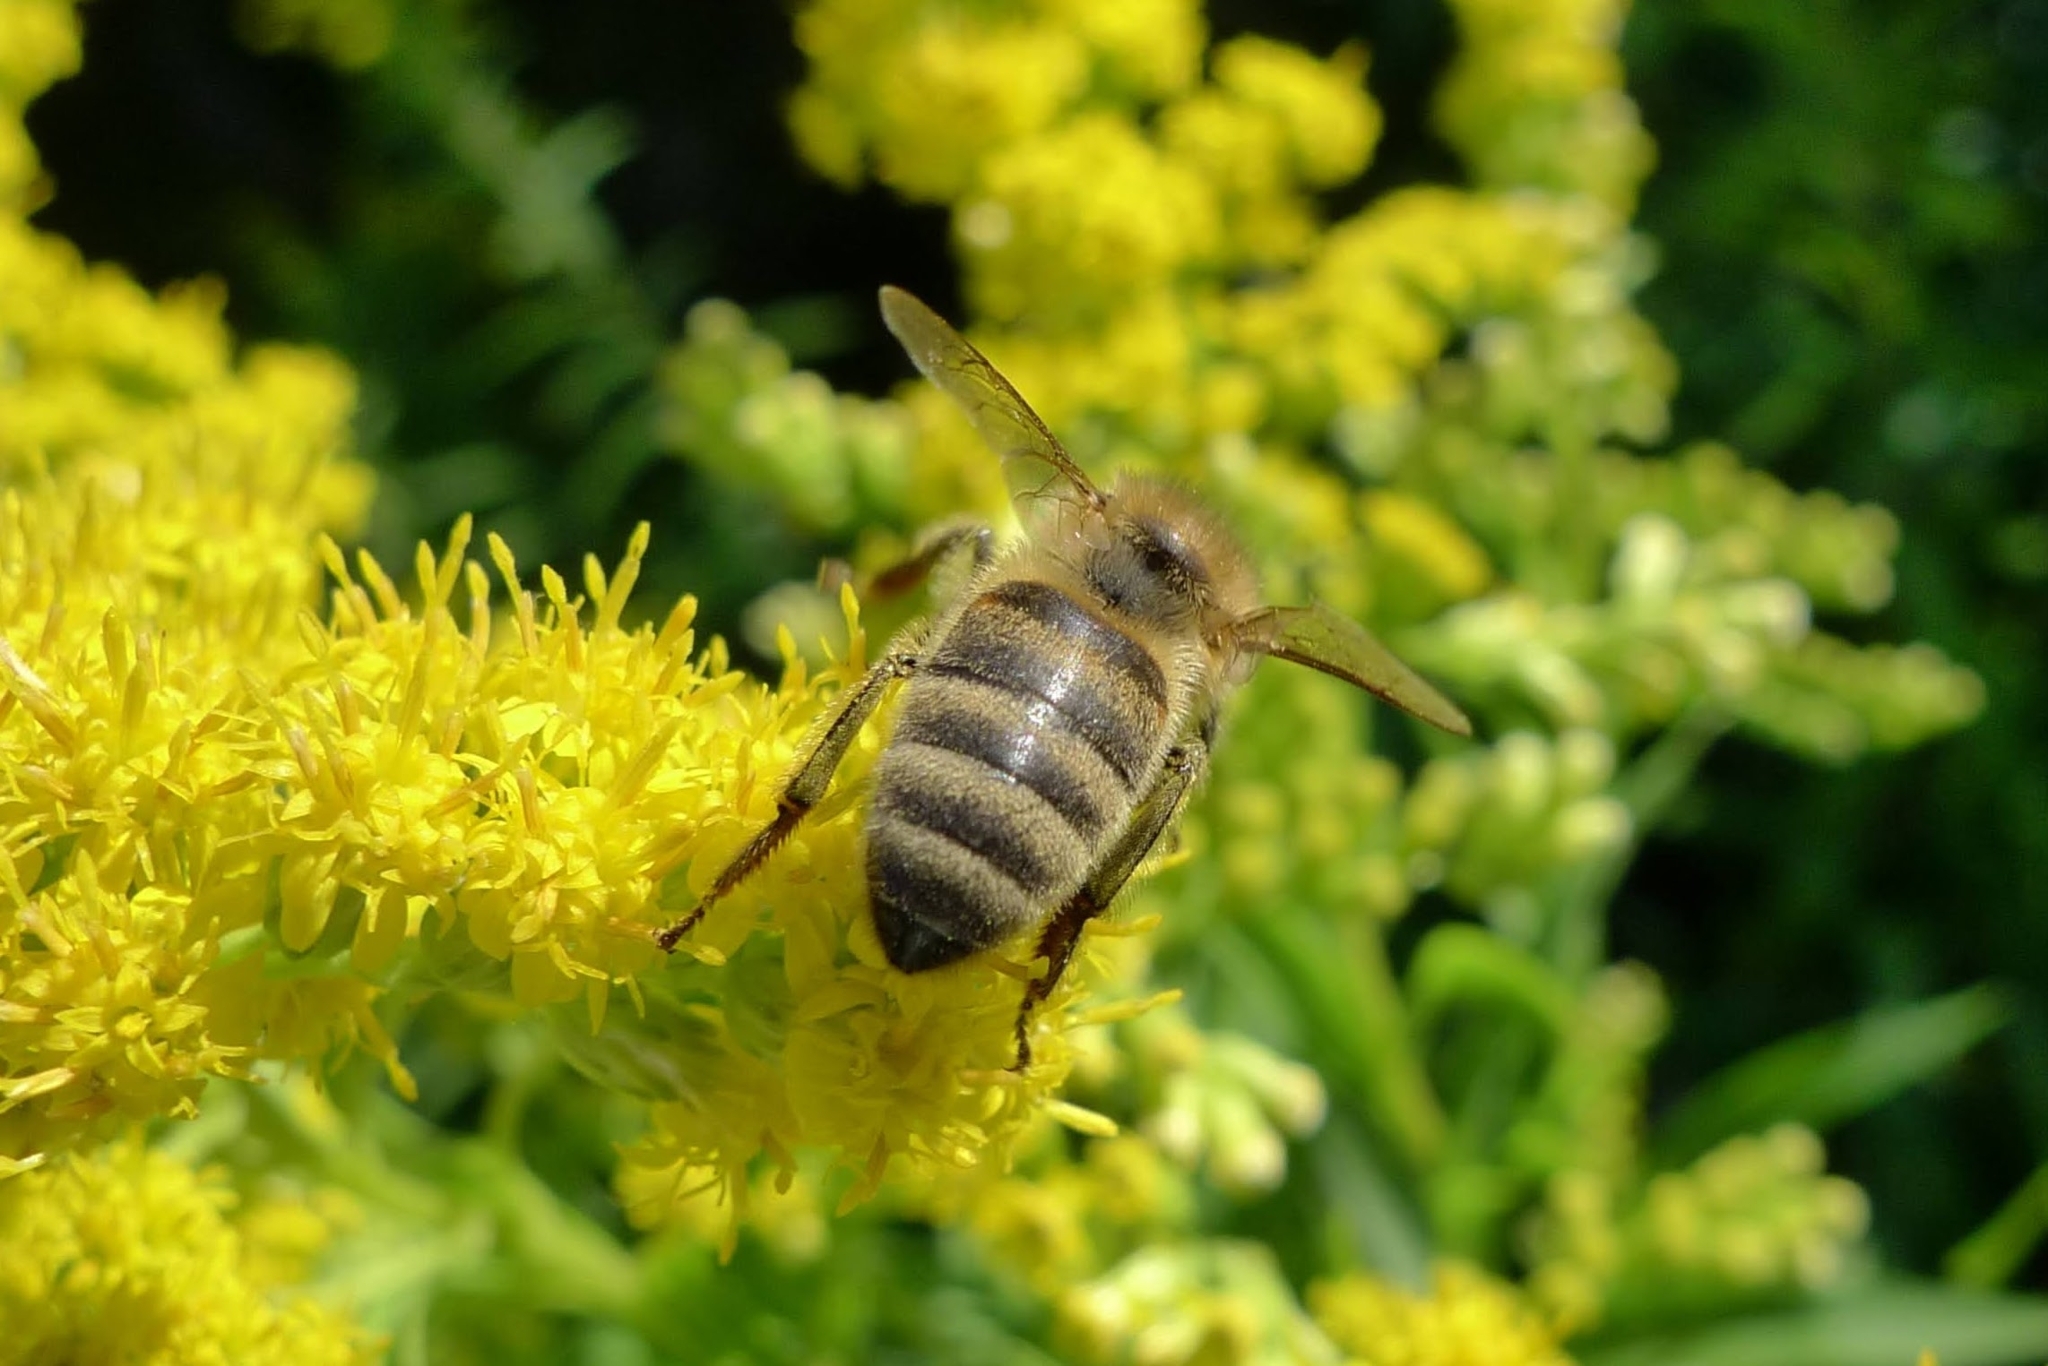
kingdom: Animalia
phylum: Arthropoda
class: Insecta
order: Hymenoptera
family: Apidae
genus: Apis
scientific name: Apis mellifera
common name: Honey bee
